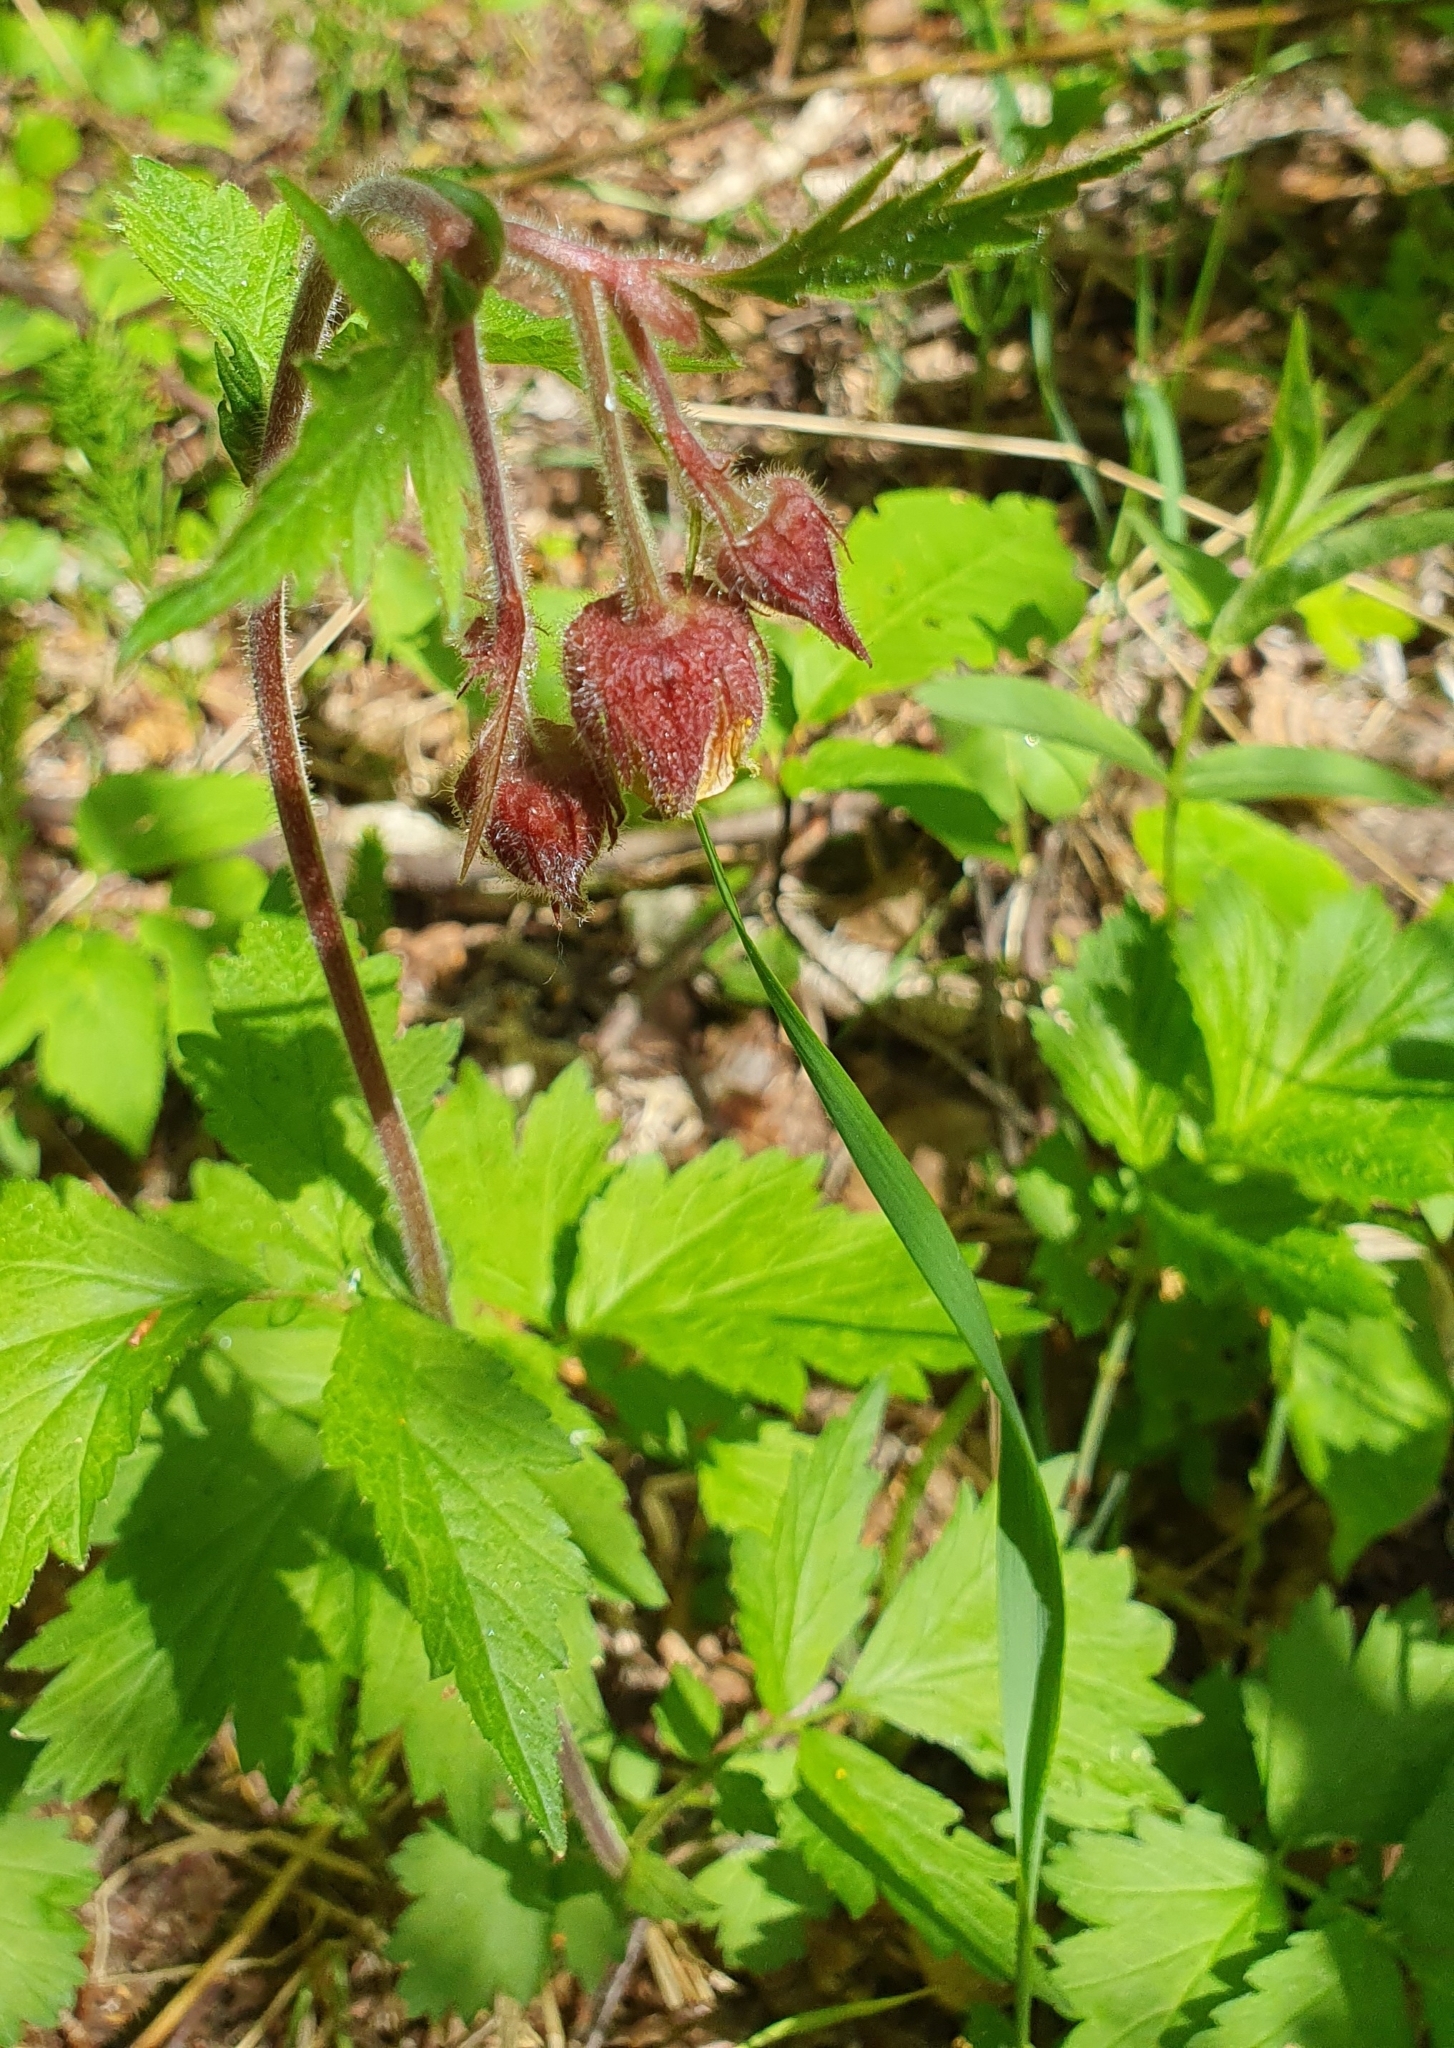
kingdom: Plantae
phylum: Tracheophyta
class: Magnoliopsida
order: Rosales
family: Rosaceae
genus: Geum
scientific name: Geum rivale
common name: Water avens
